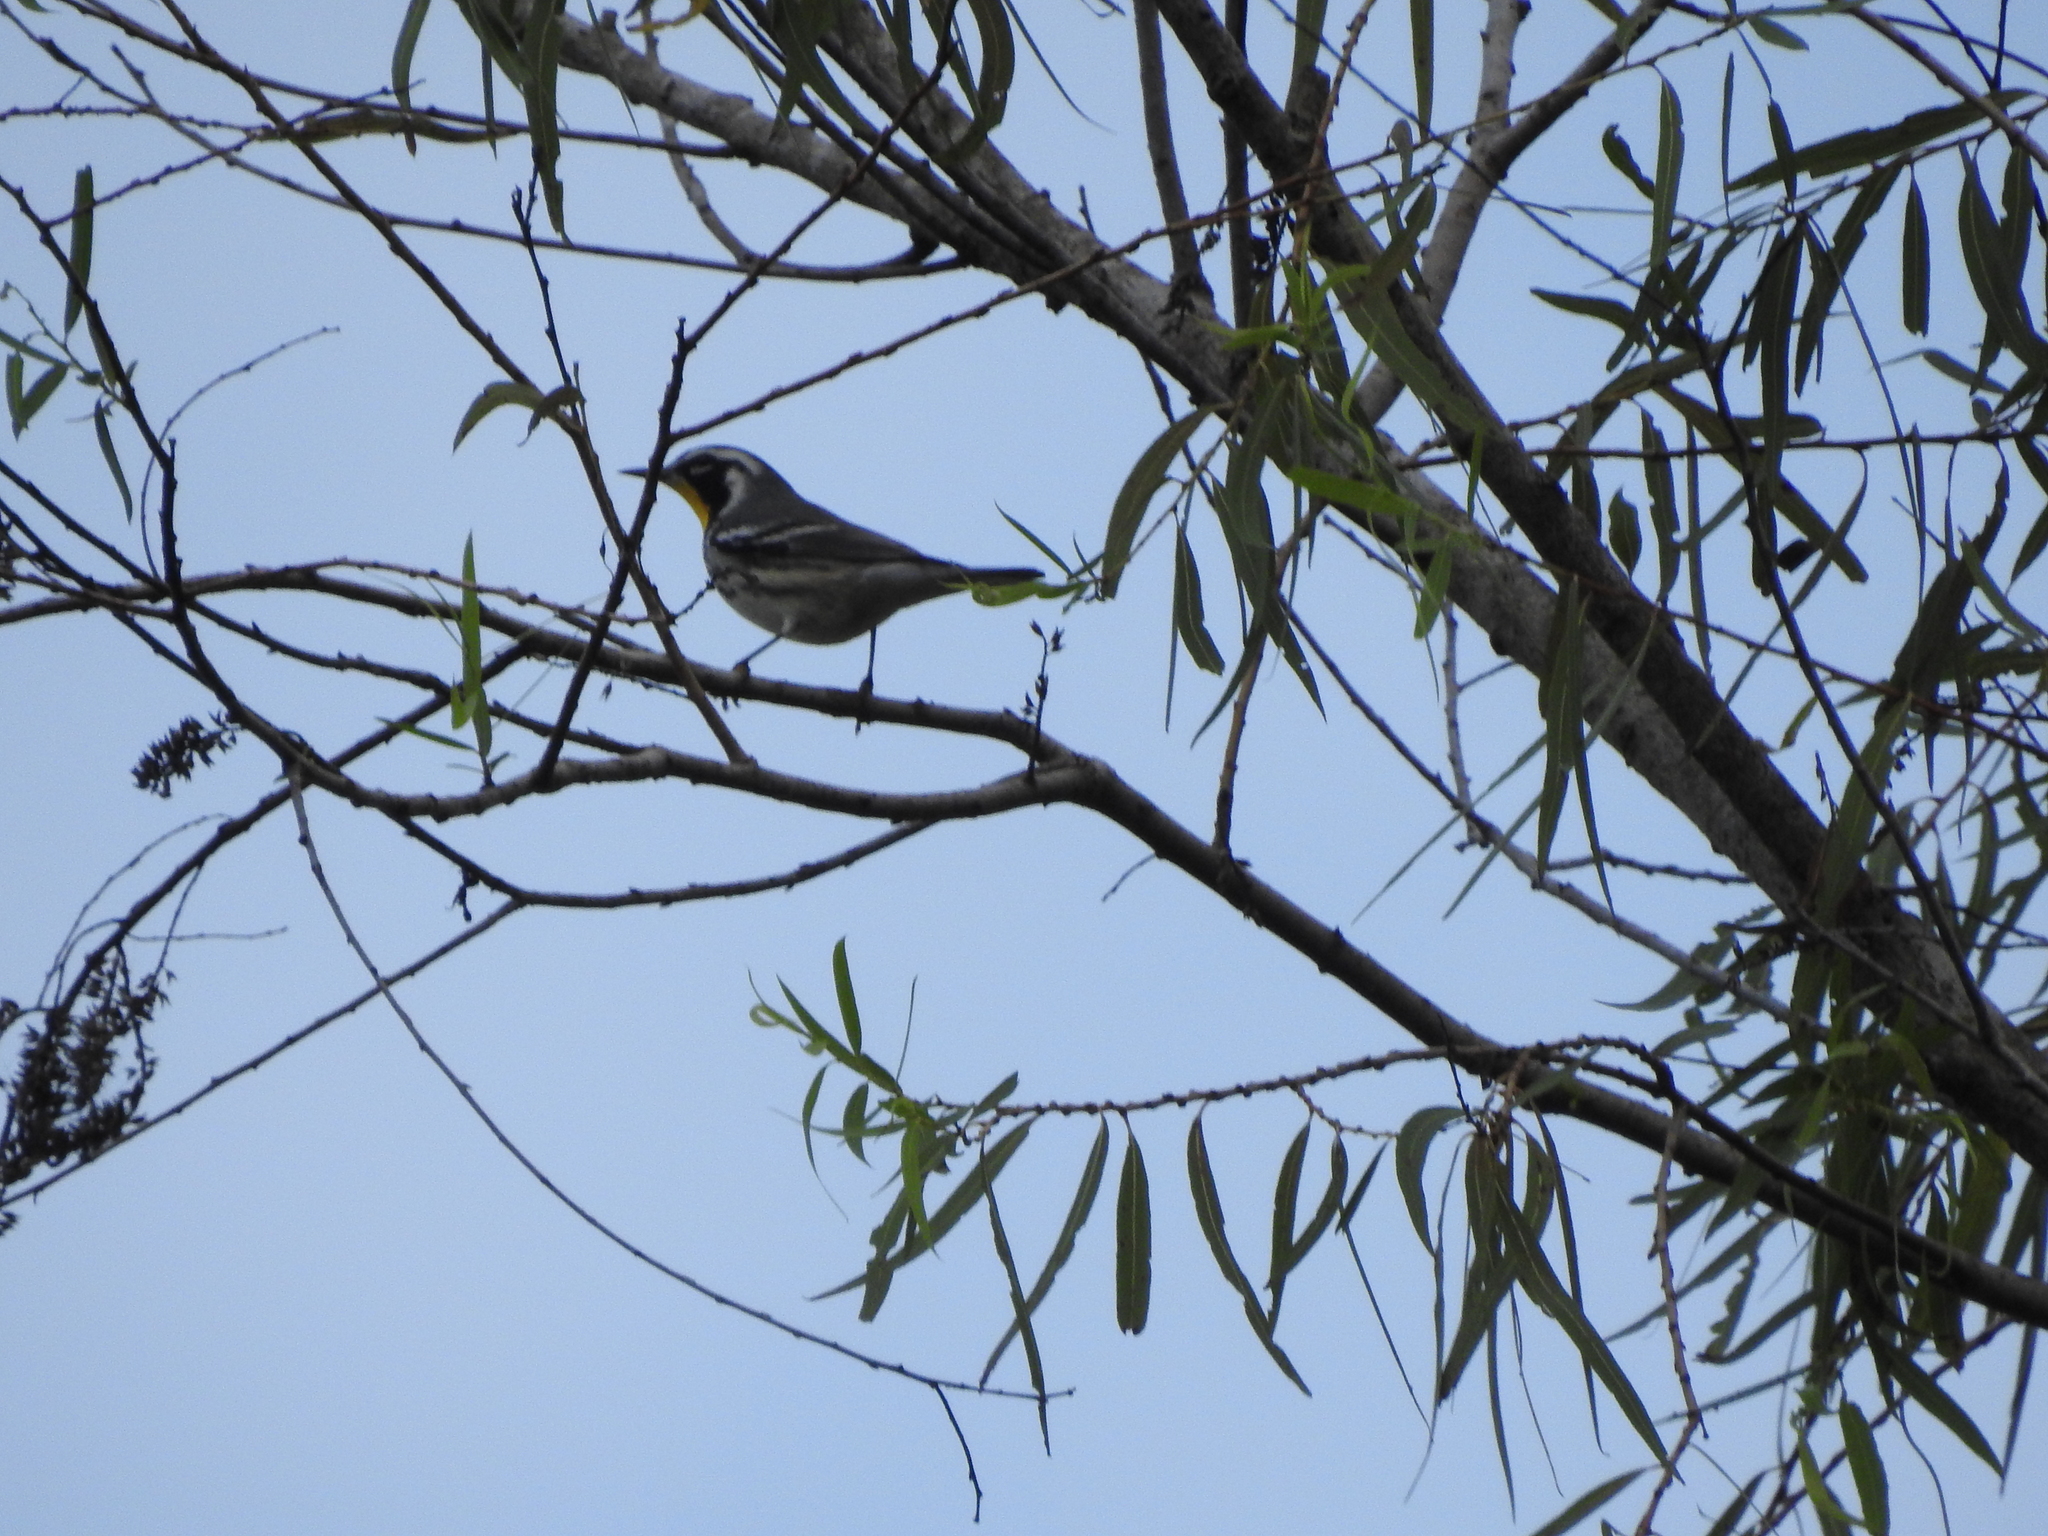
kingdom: Animalia
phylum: Chordata
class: Aves
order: Passeriformes
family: Parulidae
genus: Setophaga
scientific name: Setophaga dominica
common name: Yellow-throated warbler
